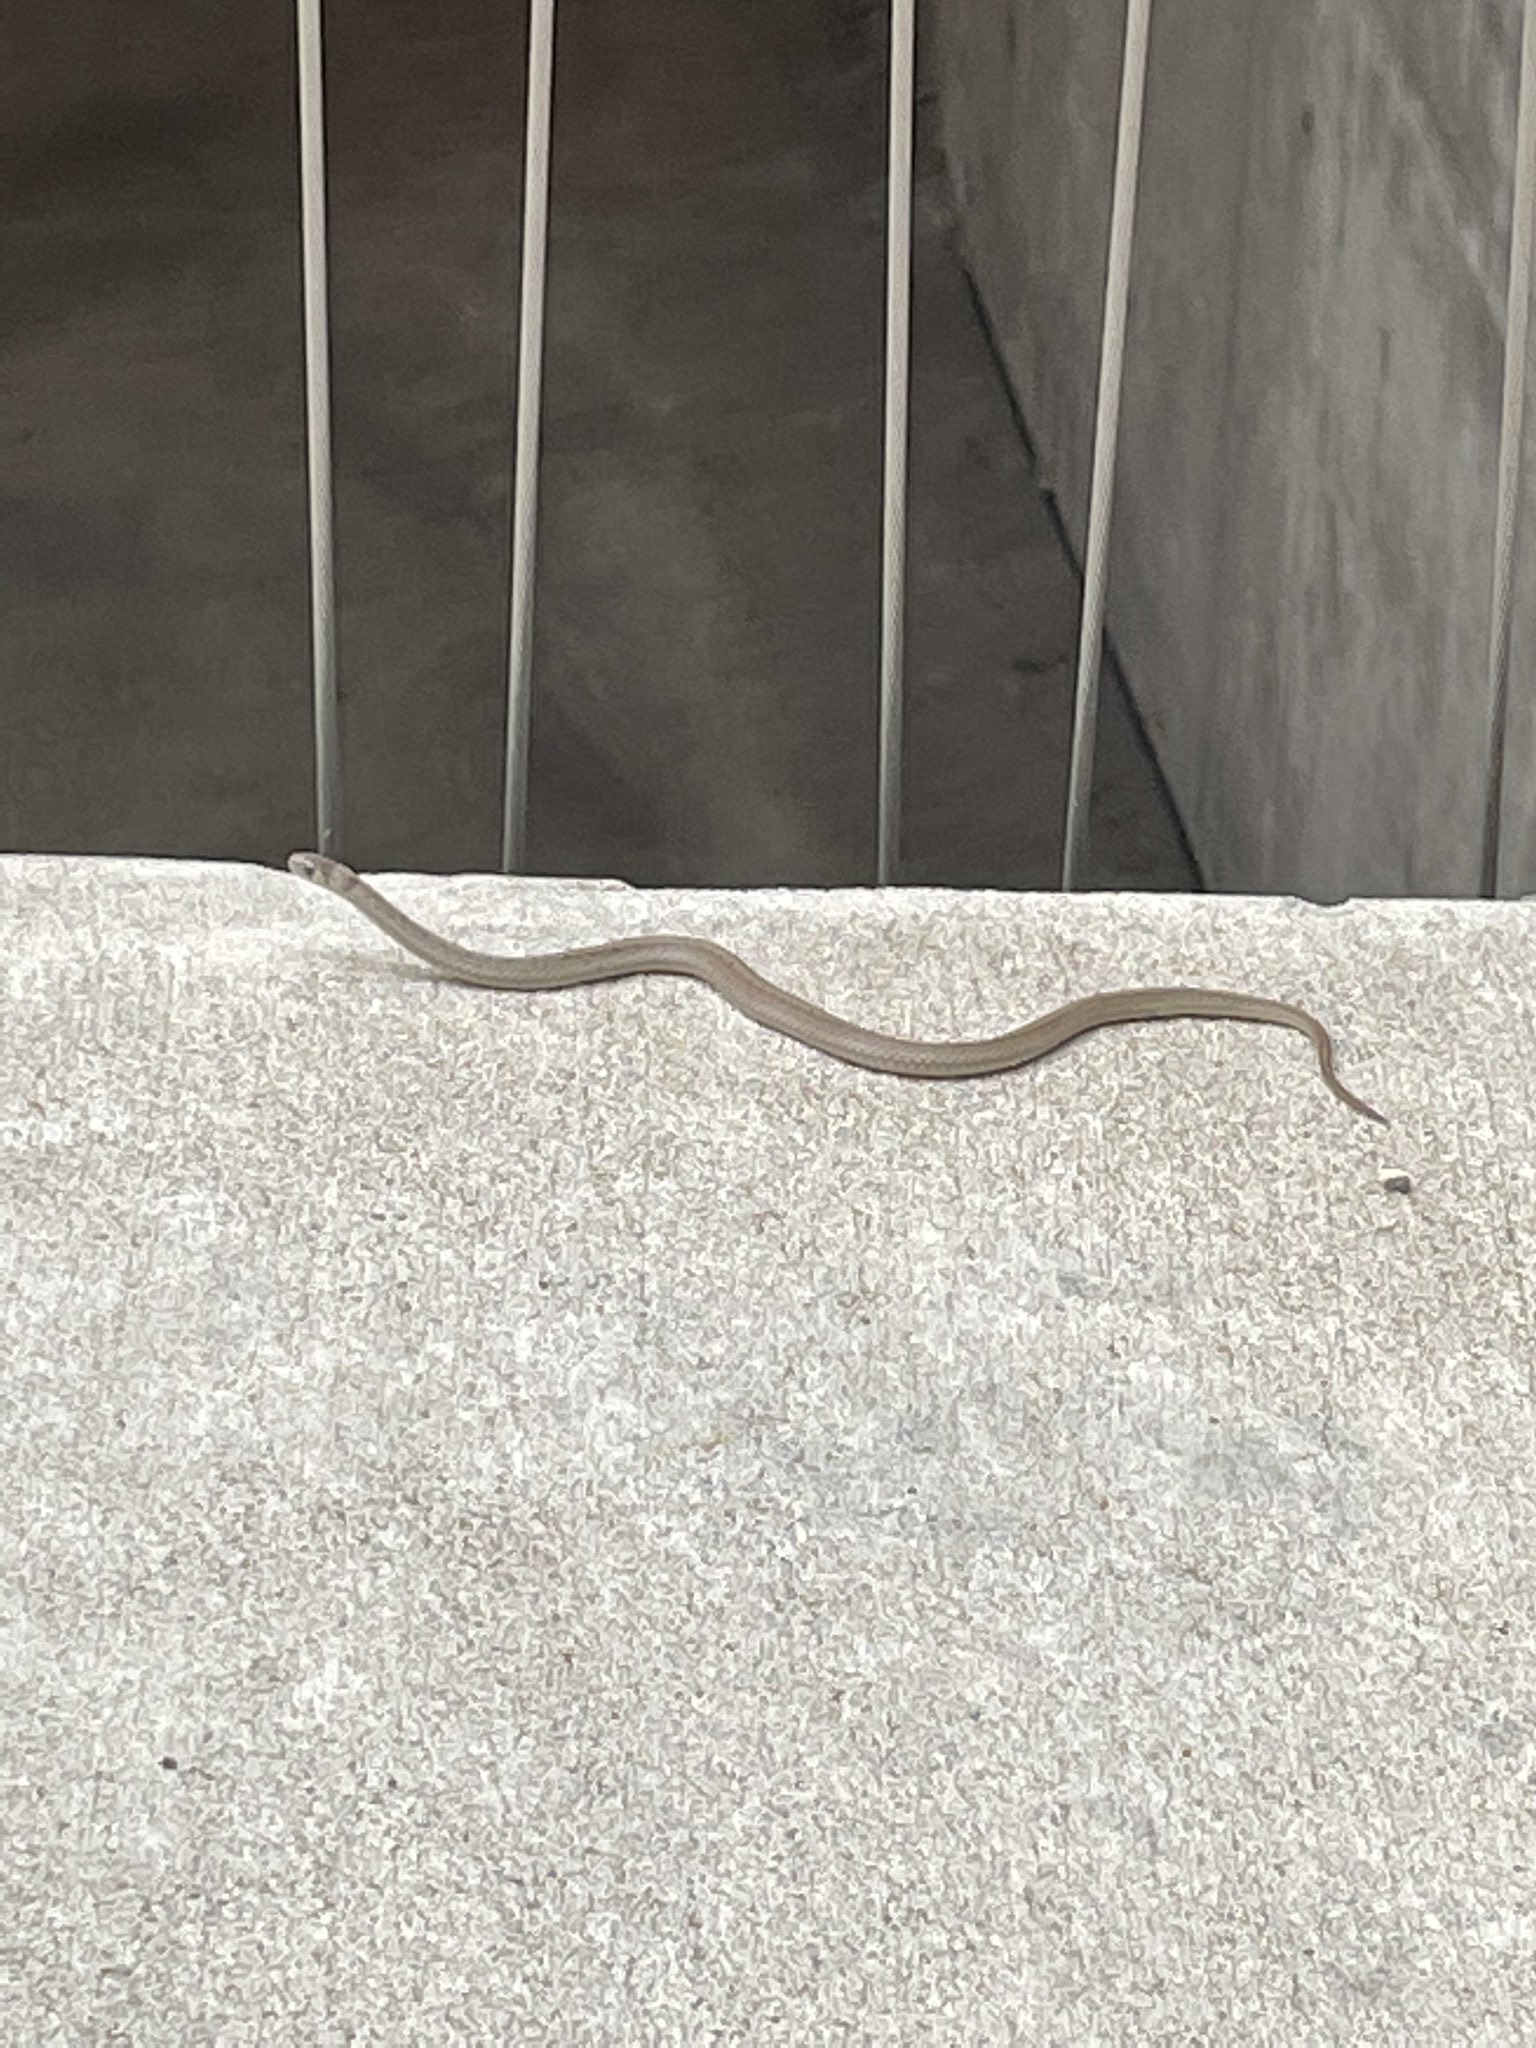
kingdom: Animalia
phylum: Chordata
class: Squamata
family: Colubridae
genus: Storeria
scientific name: Storeria dekayi
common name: (dekay’s) brown snake
